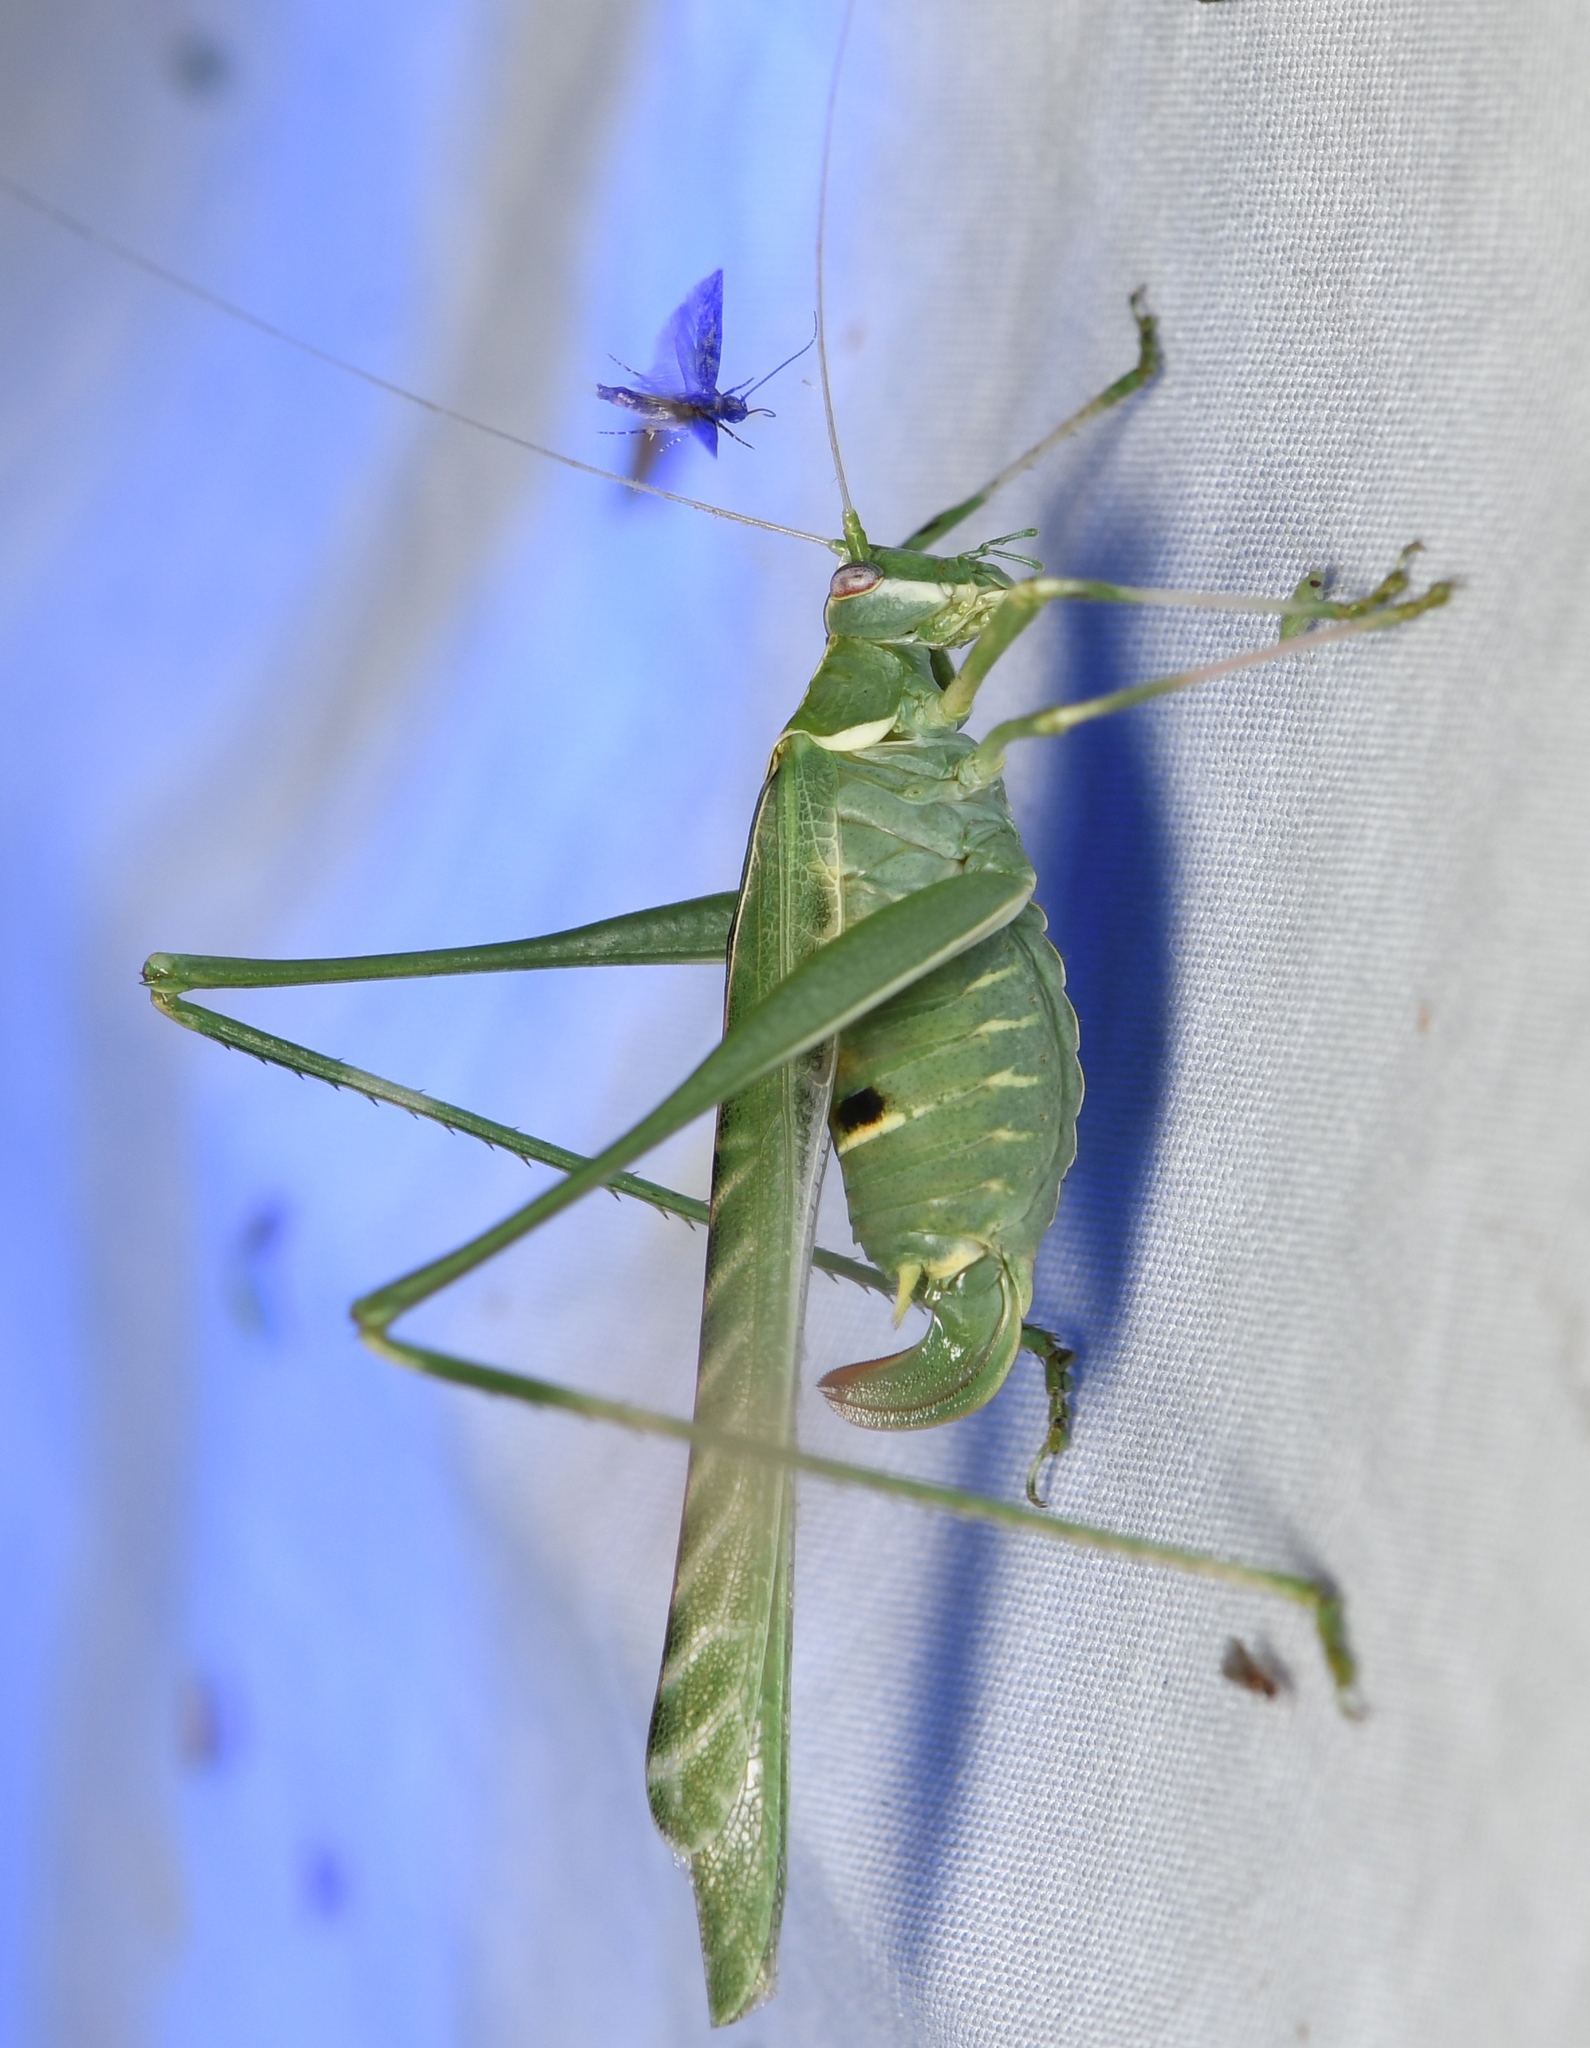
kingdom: Animalia
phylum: Arthropoda
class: Insecta
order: Orthoptera
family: Tettigoniidae
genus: Insara
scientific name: Insara elegans
